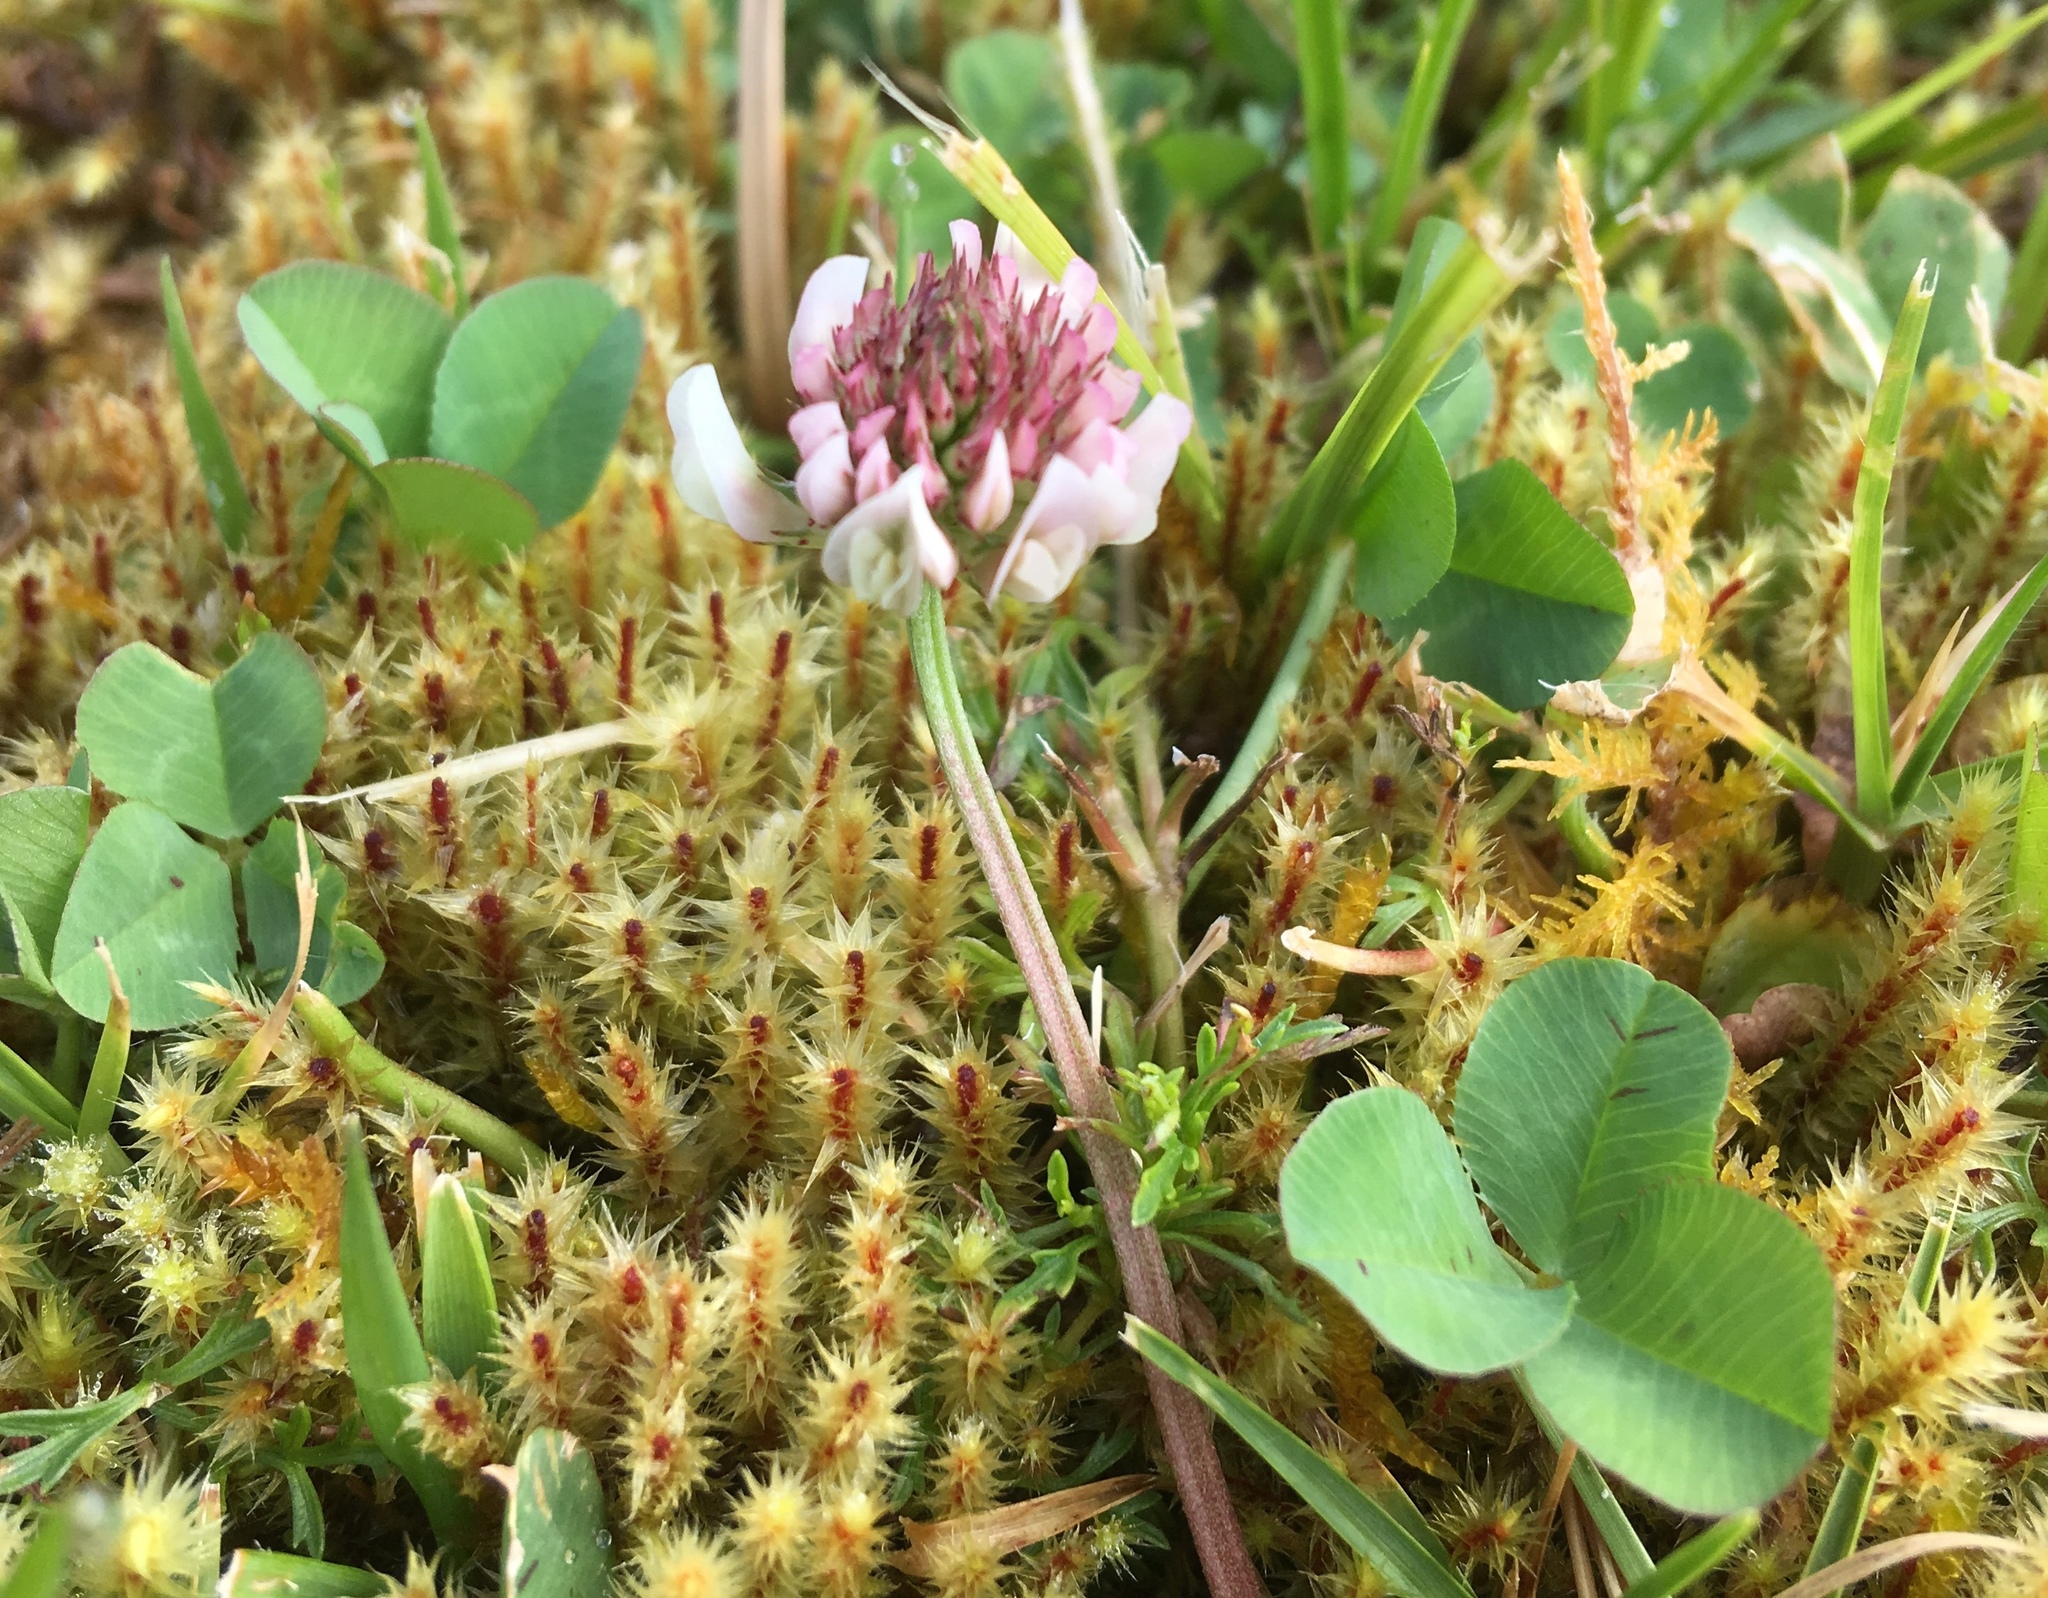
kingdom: Plantae
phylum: Tracheophyta
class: Magnoliopsida
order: Fabales
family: Fabaceae
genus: Trifolium
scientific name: Trifolium repens
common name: White clover
